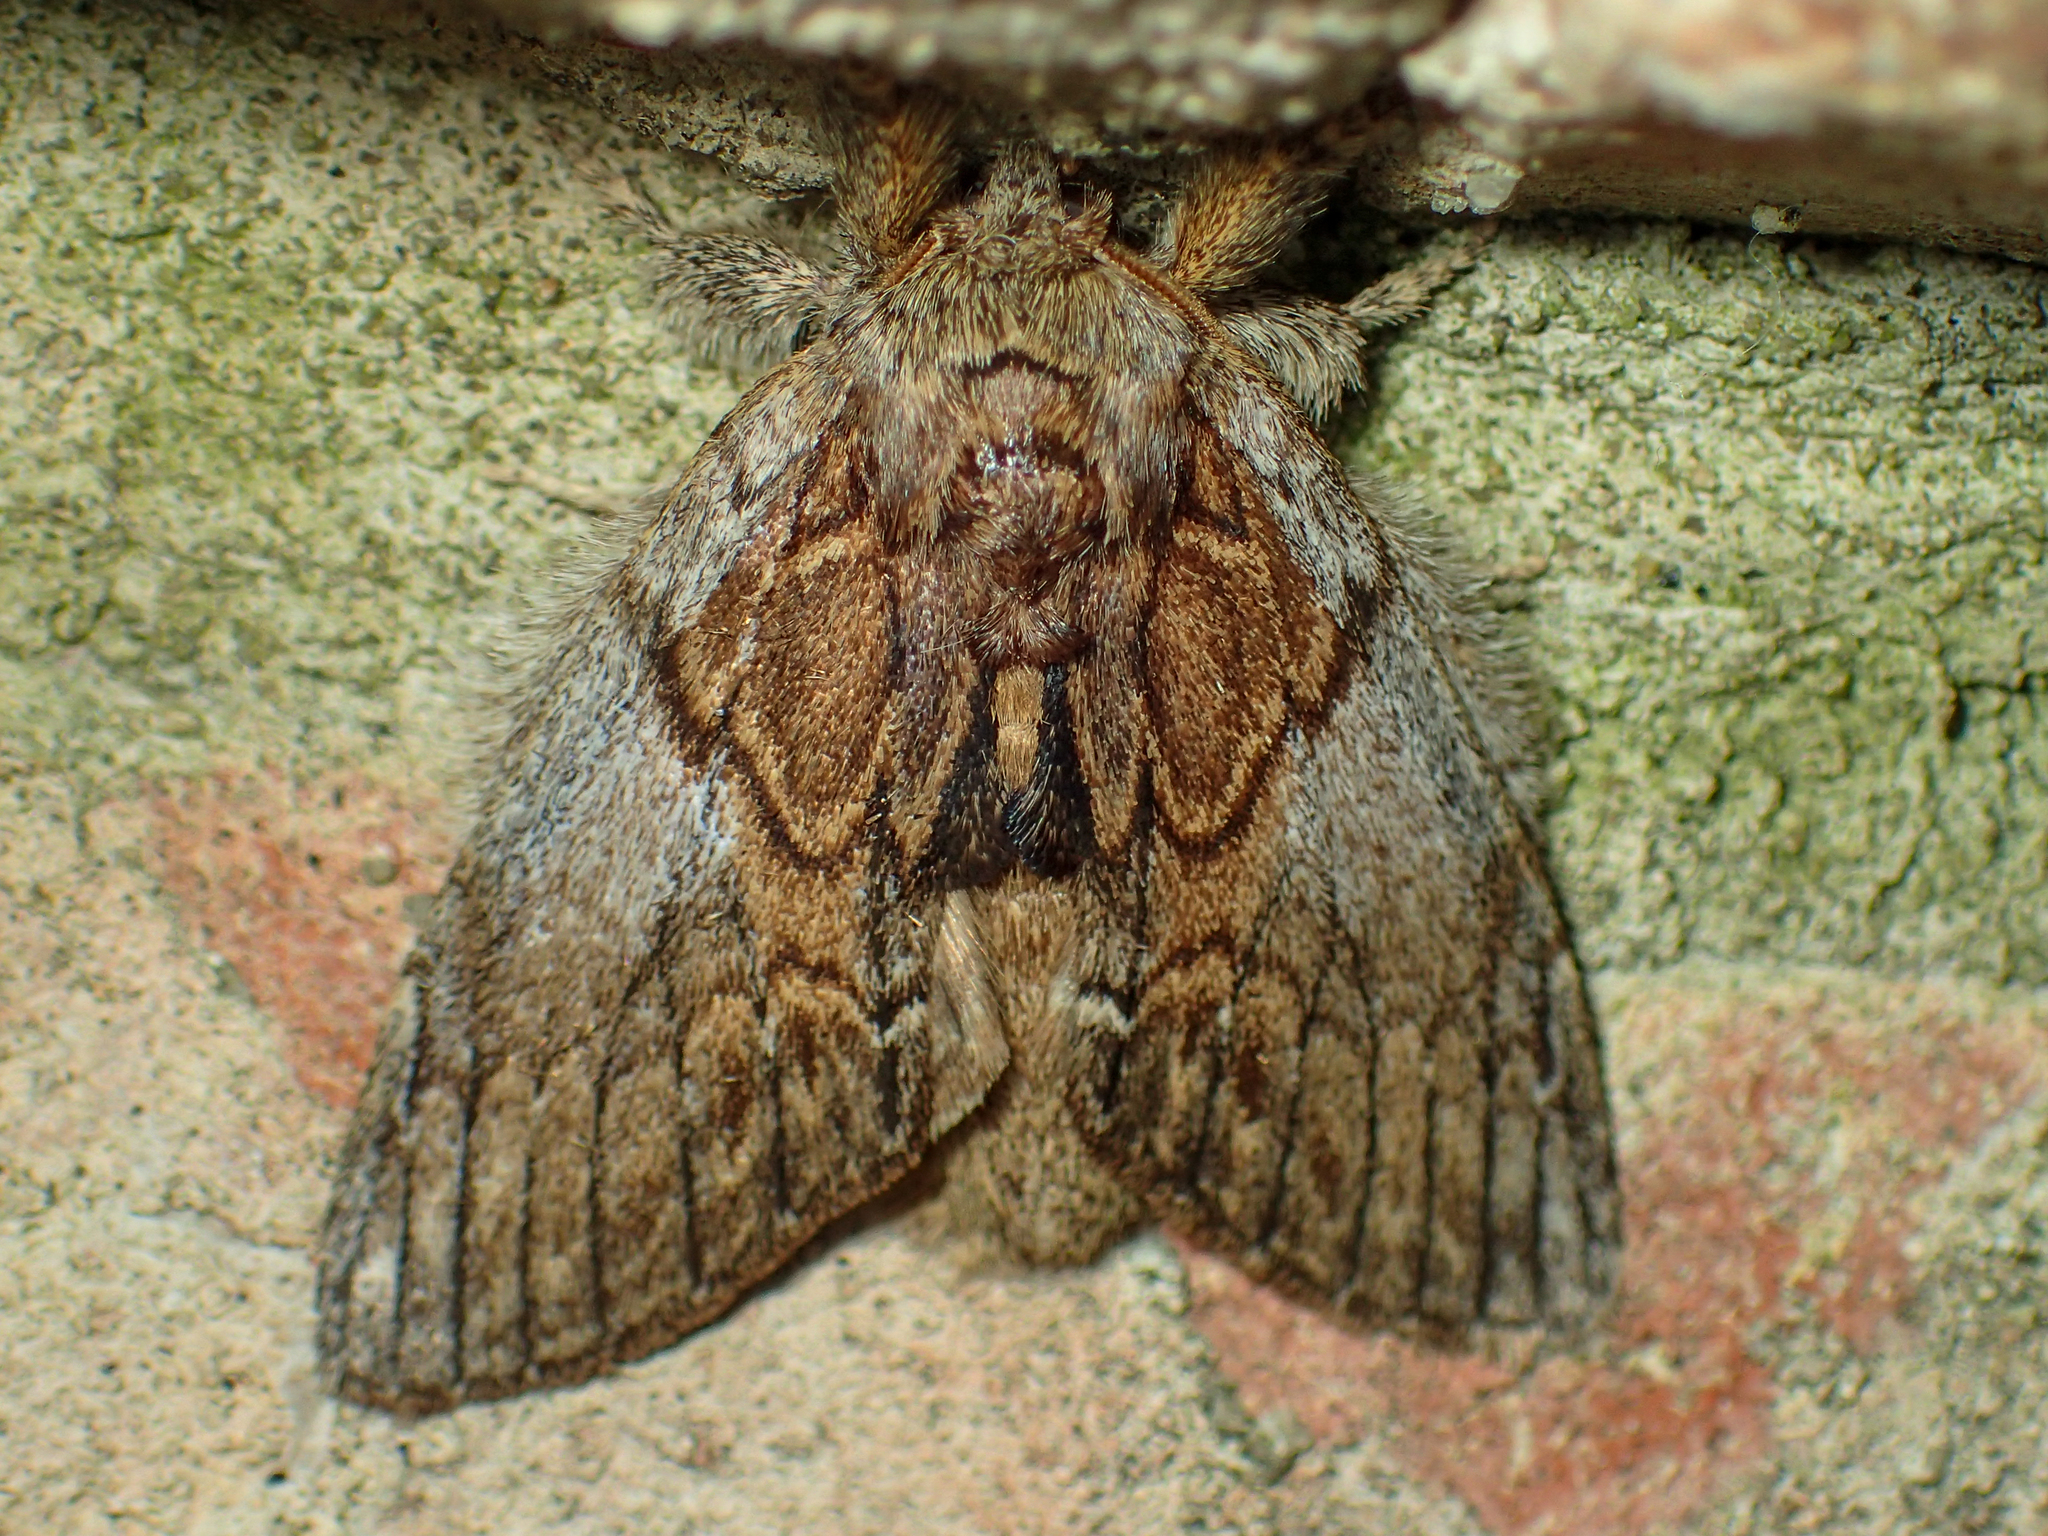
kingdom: Animalia
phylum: Arthropoda
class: Insecta
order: Lepidoptera
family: Notodontidae
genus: Peridea
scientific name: Peridea basitriens
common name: Oval-based prominent
